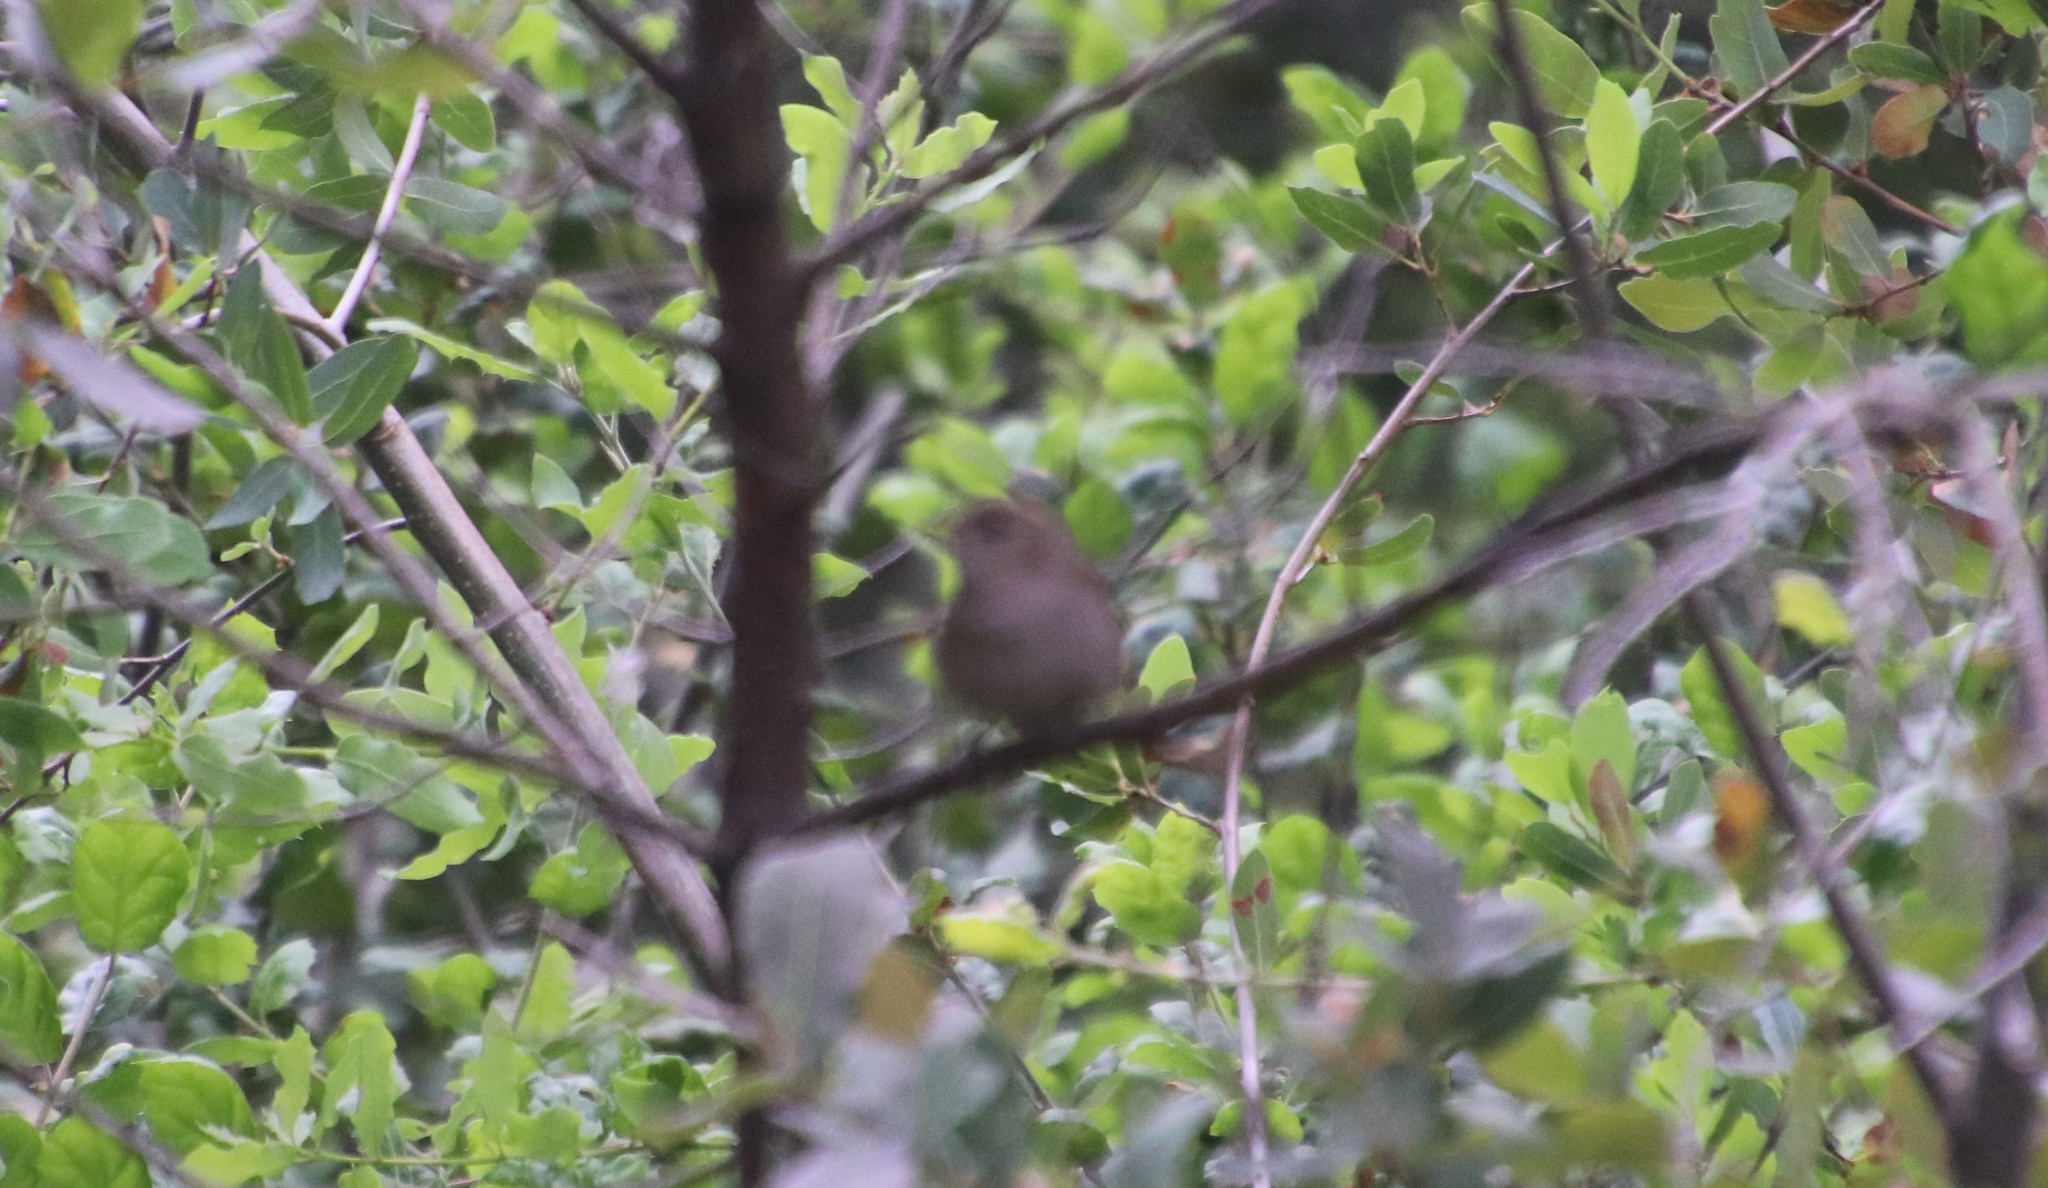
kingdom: Animalia
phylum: Chordata
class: Aves
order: Passeriformes
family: Troglodytidae
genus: Troglodytes
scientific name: Troglodytes aedon
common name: House wren
